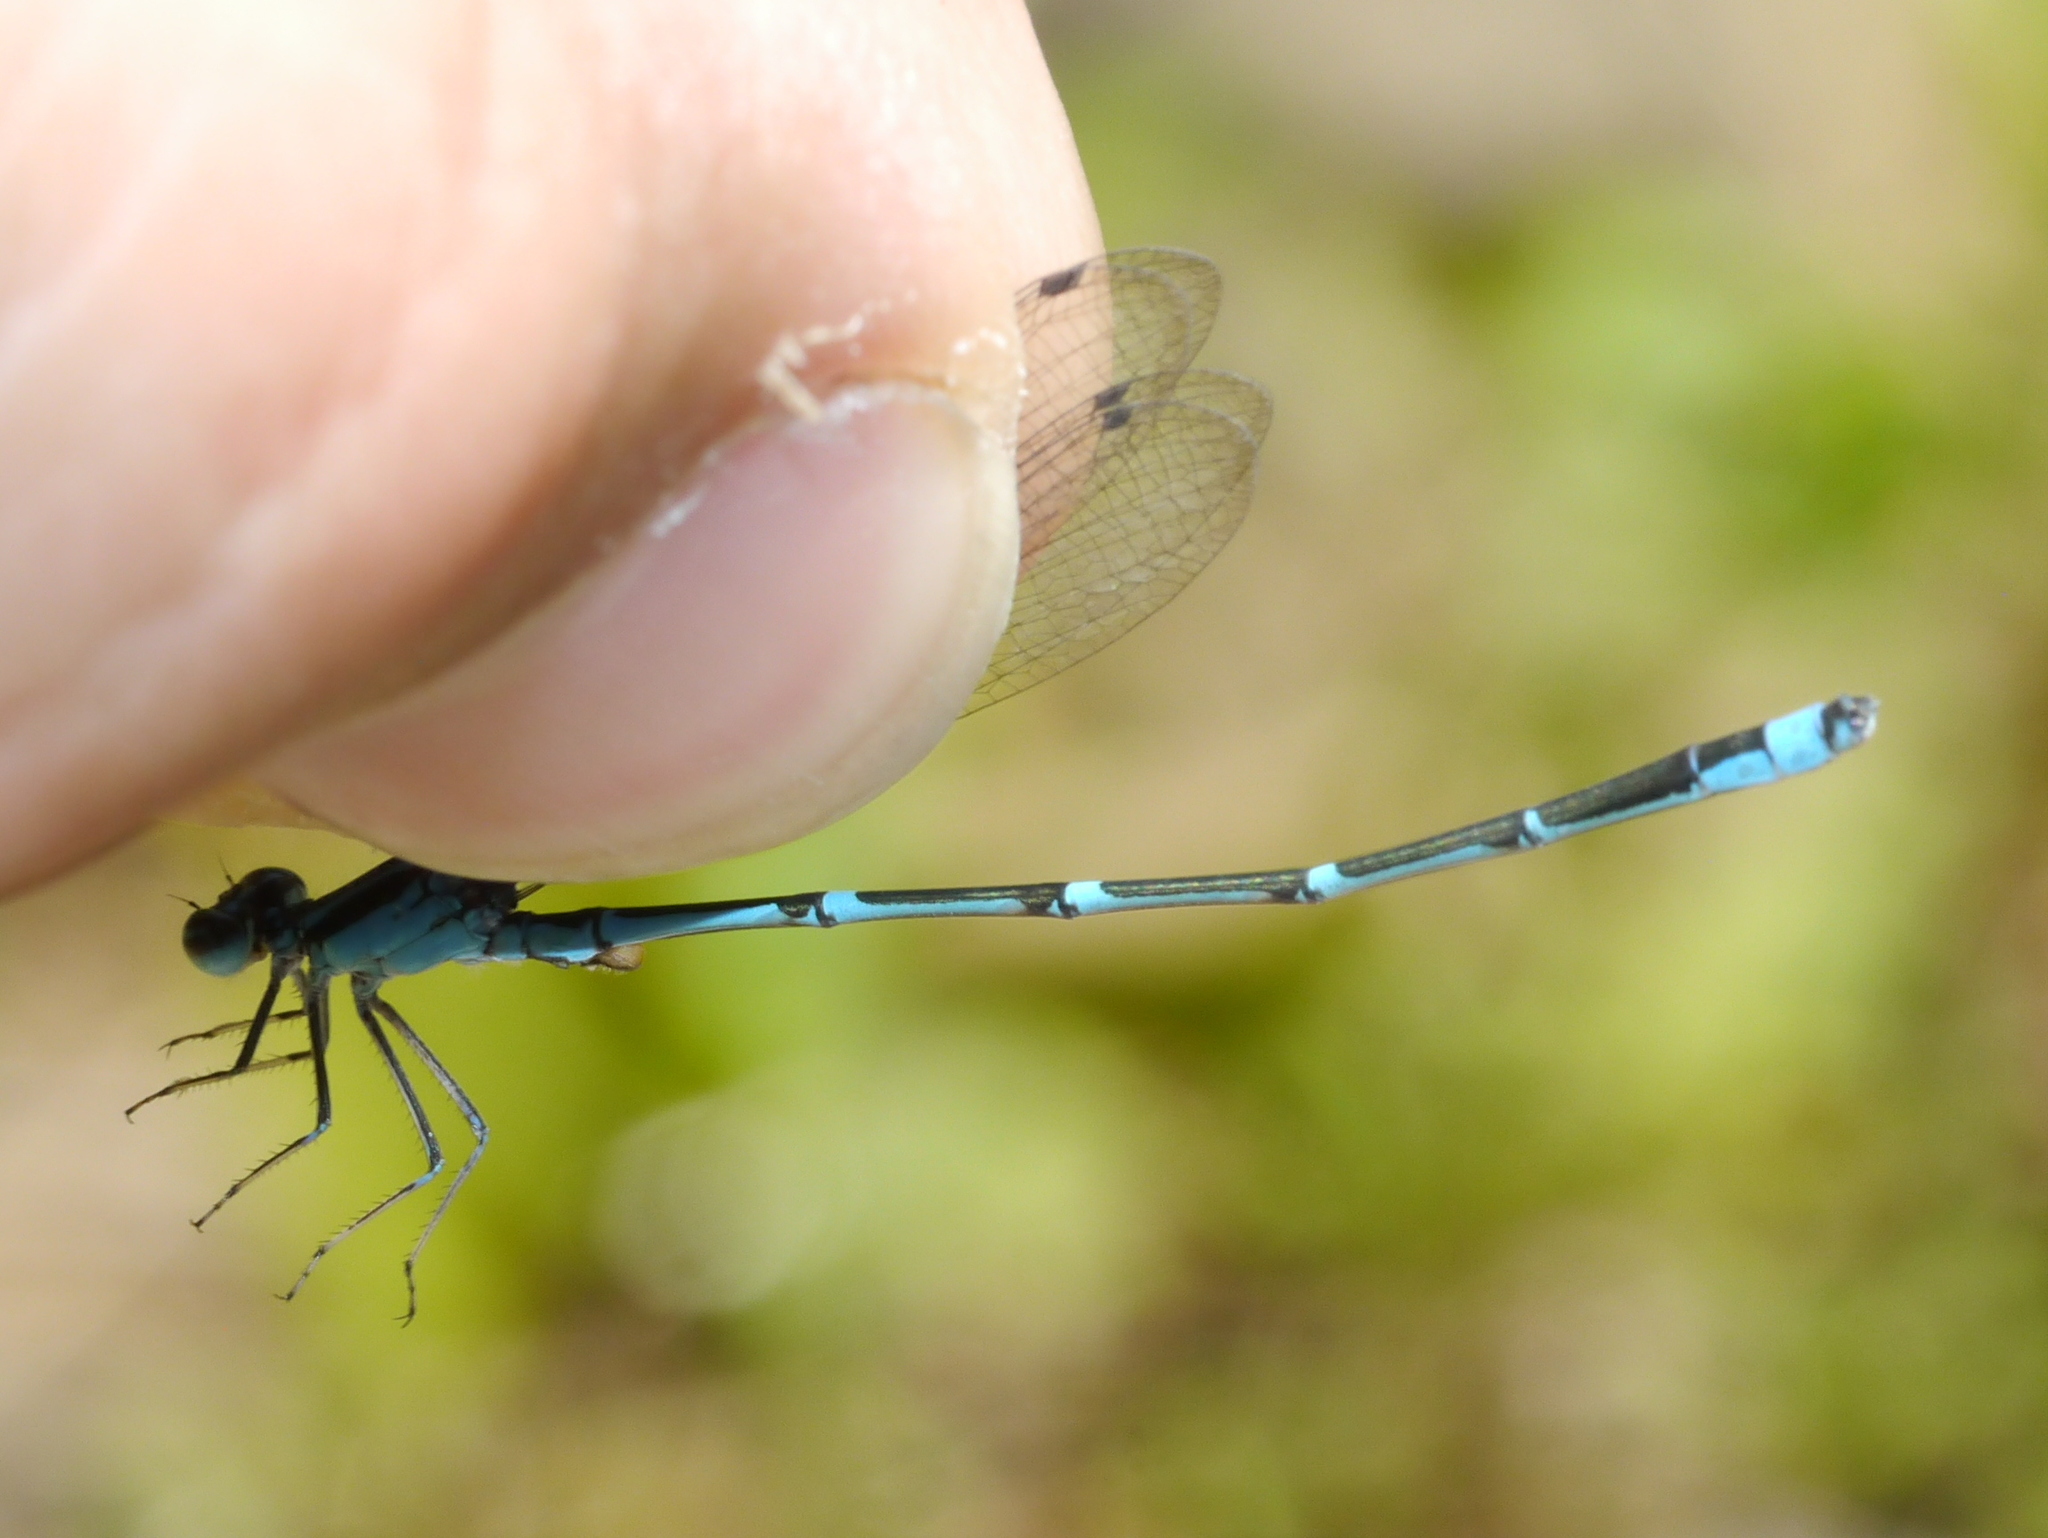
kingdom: Animalia
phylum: Arthropoda
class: Insecta
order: Odonata
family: Coenagrionidae
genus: Enallagma
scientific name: Enallagma exsulans
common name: Stream bluet
